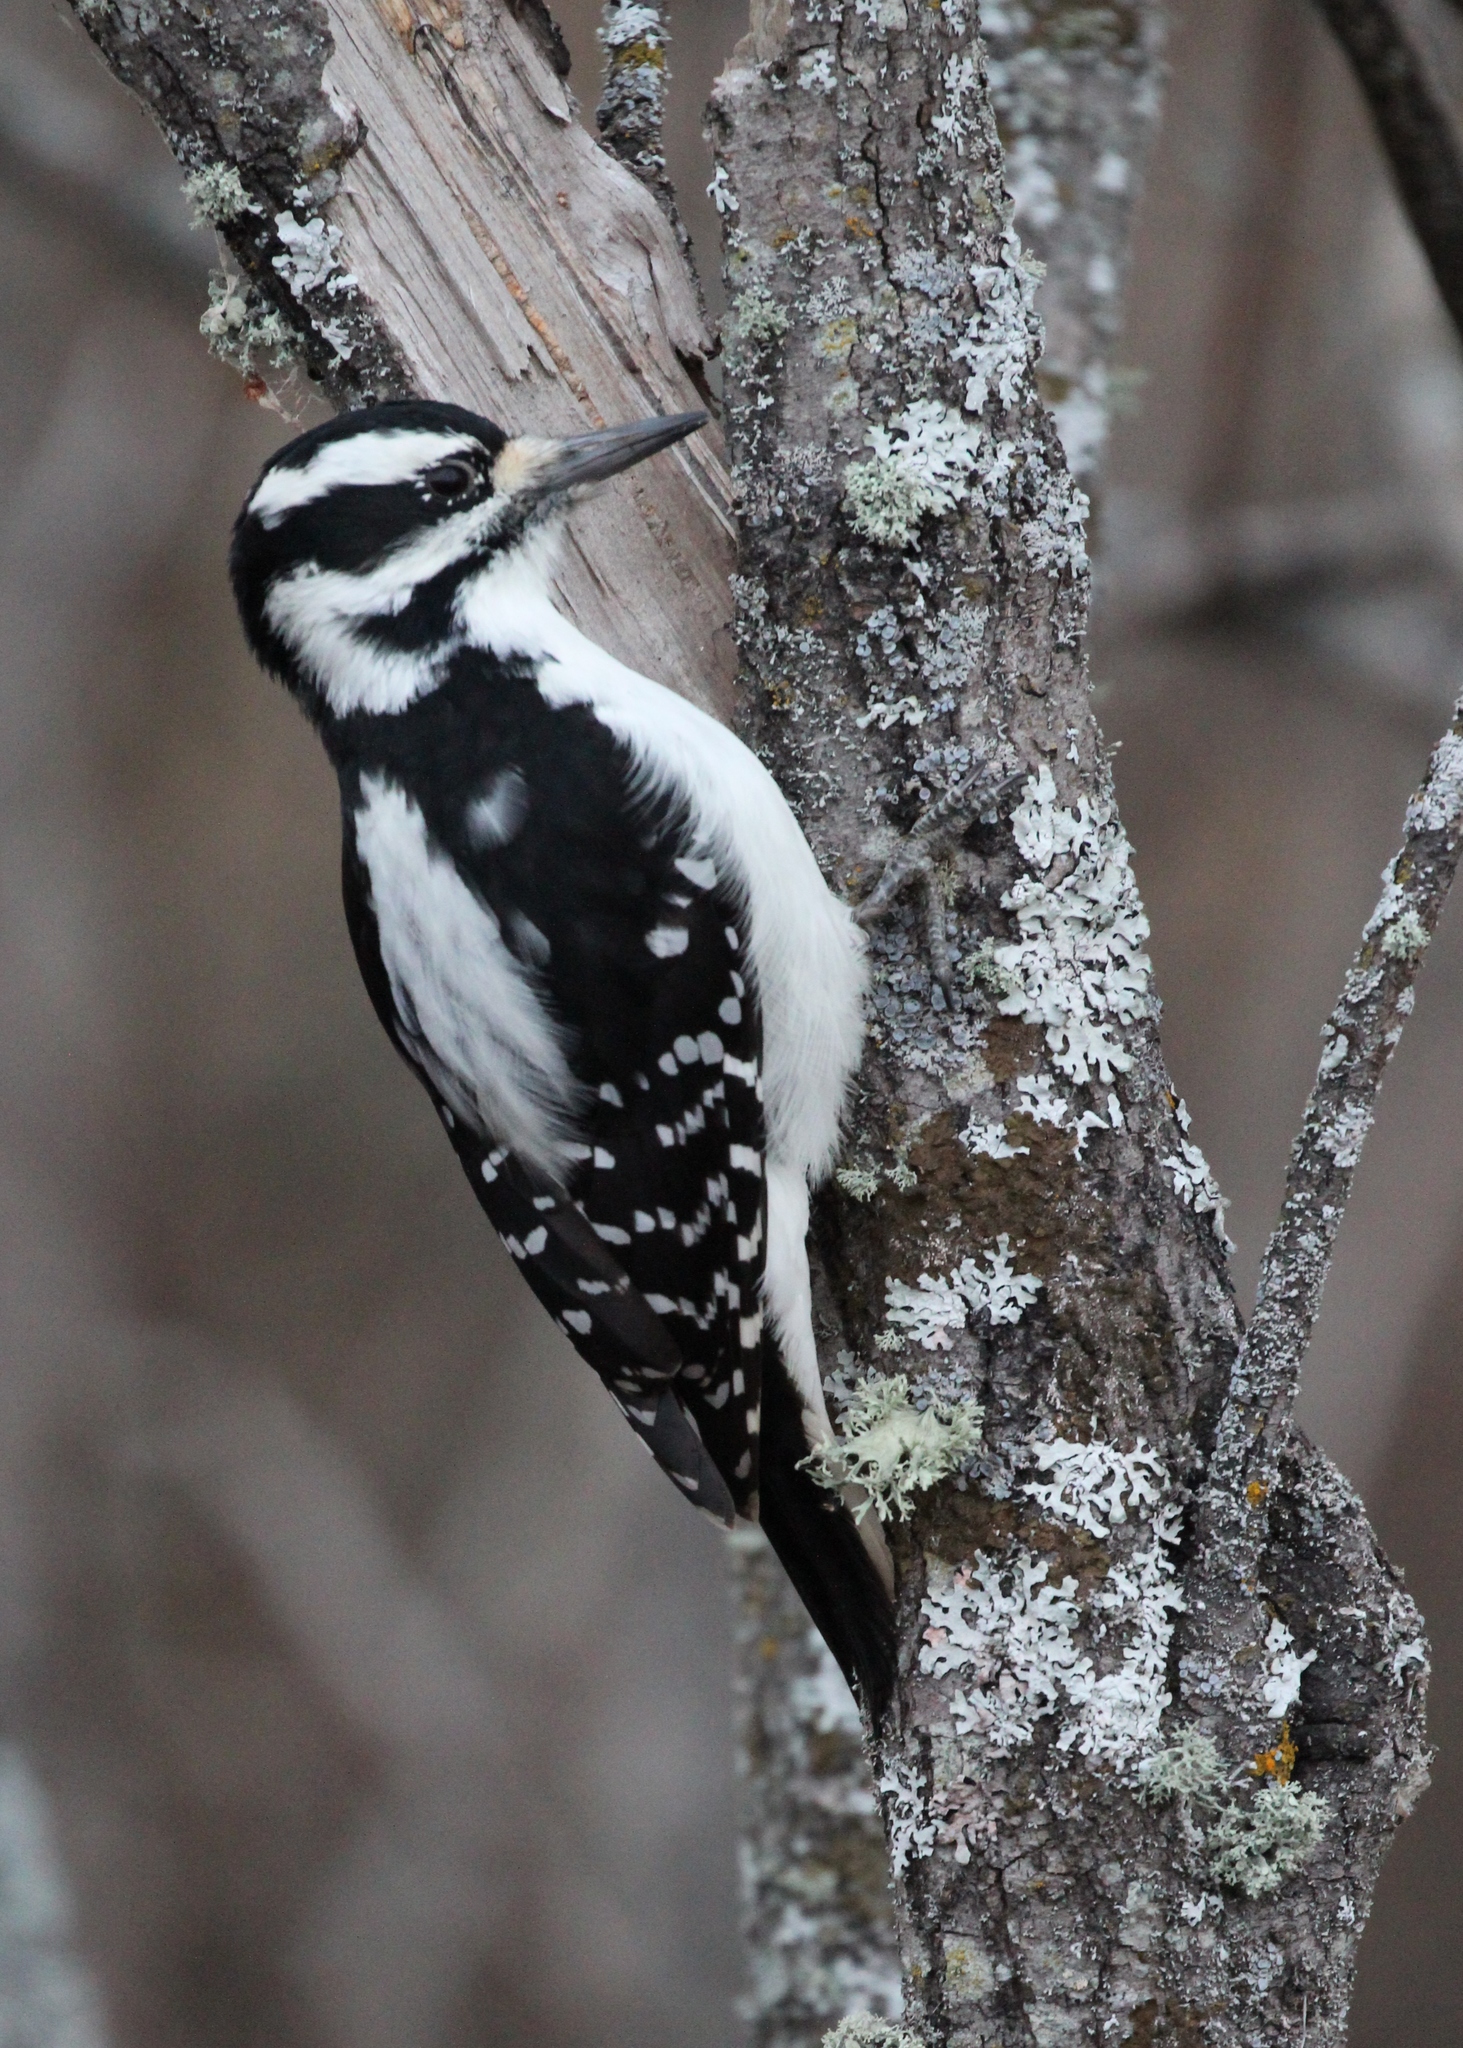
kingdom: Animalia
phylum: Chordata
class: Aves
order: Piciformes
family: Picidae
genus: Leuconotopicus
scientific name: Leuconotopicus villosus
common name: Hairy woodpecker
